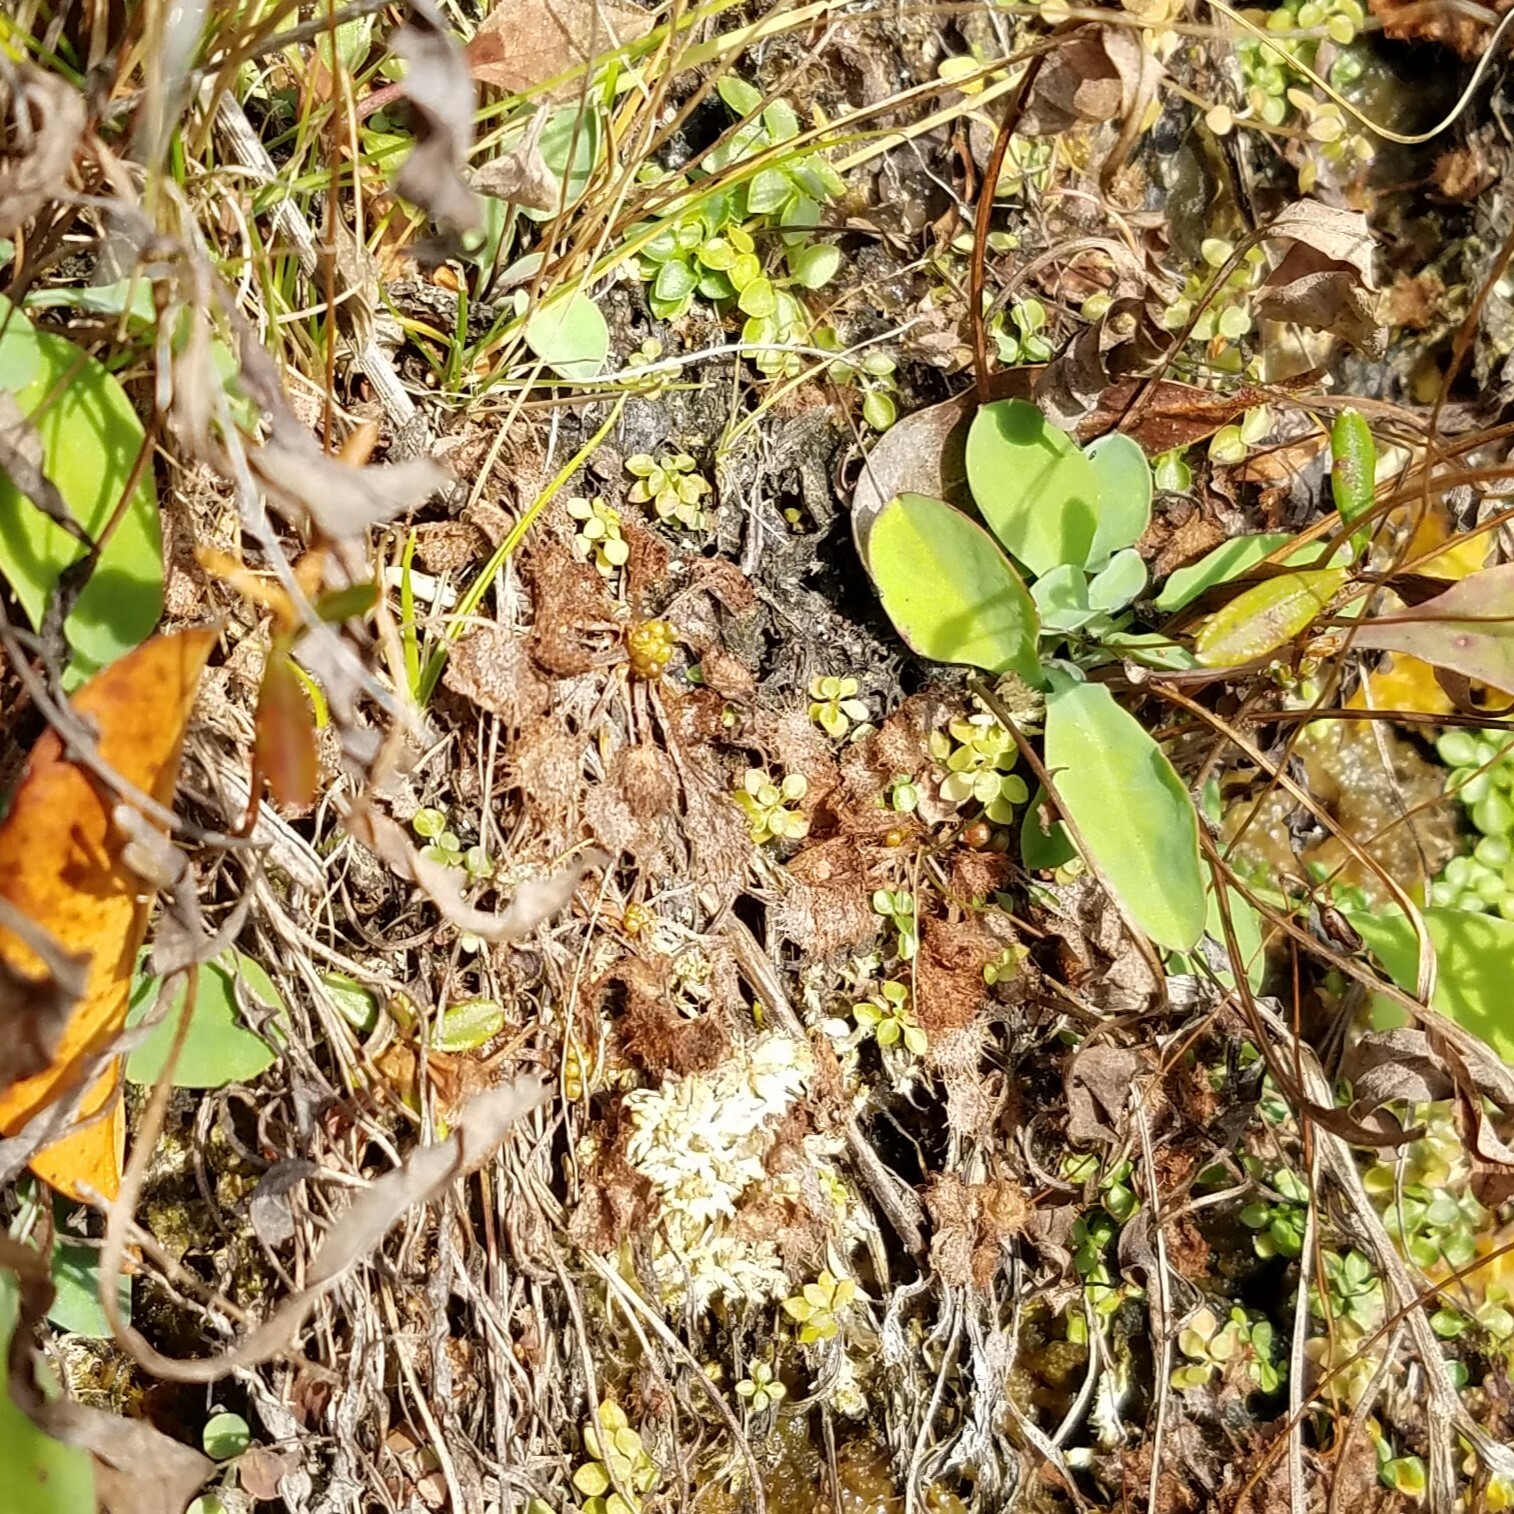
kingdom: Plantae
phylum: Tracheophyta
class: Magnoliopsida
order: Caryophyllales
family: Droseraceae
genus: Drosera
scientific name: Drosera rotundifolia
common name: Round-leaved sundew
